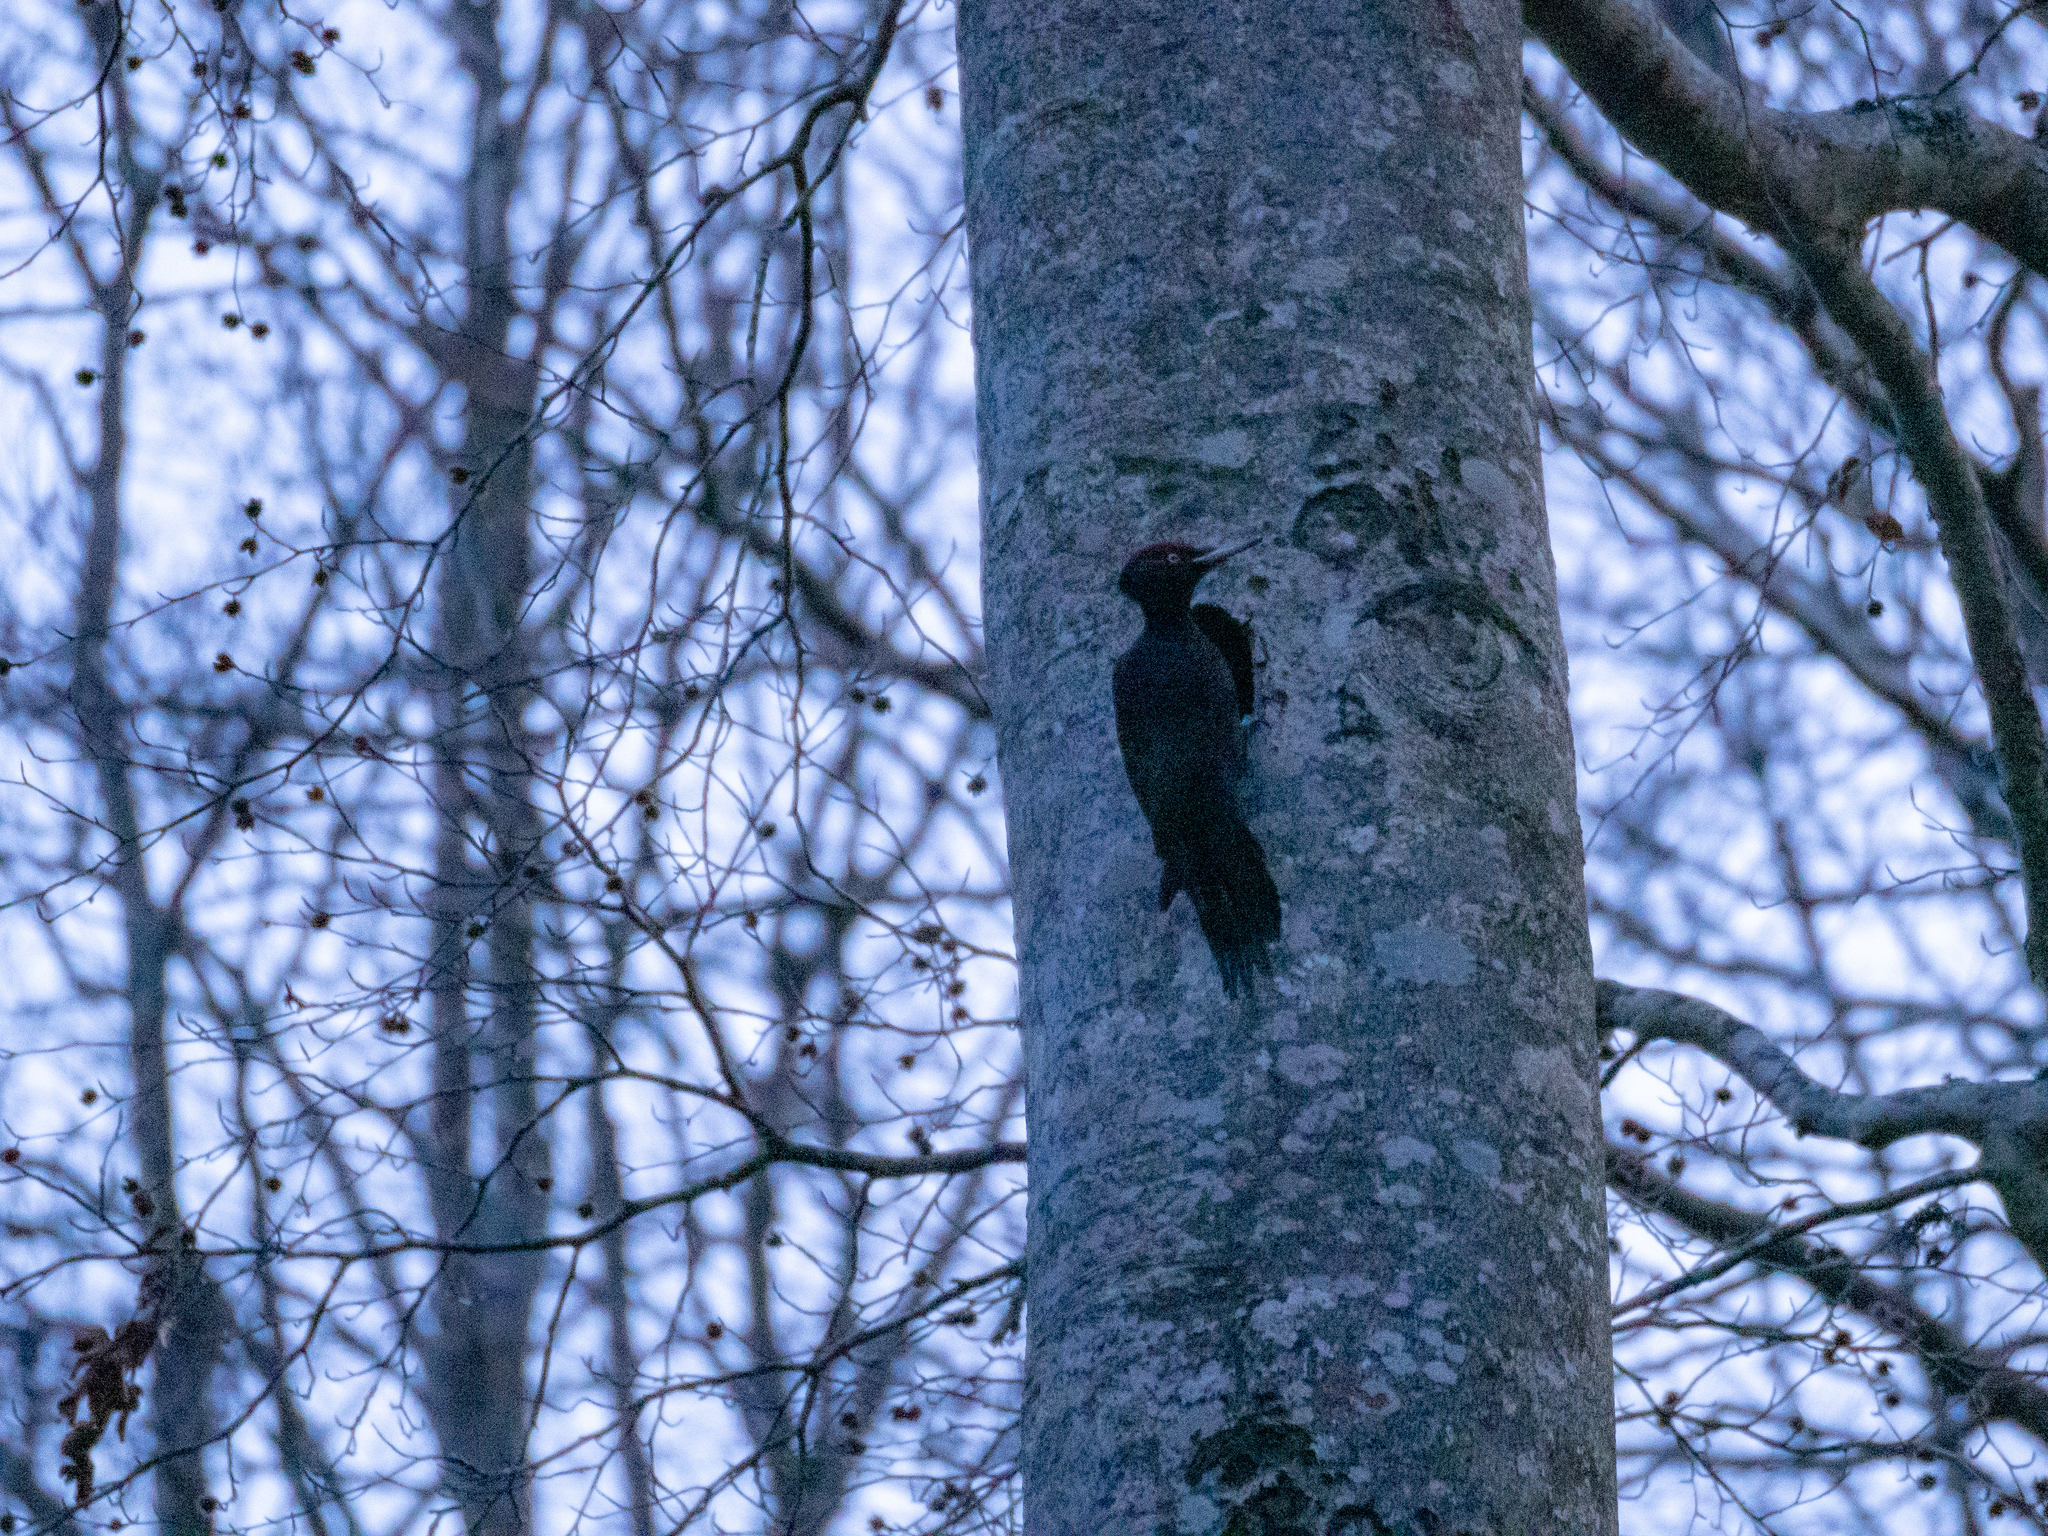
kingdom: Animalia
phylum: Chordata
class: Aves
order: Piciformes
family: Picidae
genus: Dryocopus
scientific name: Dryocopus martius
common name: Black woodpecker
